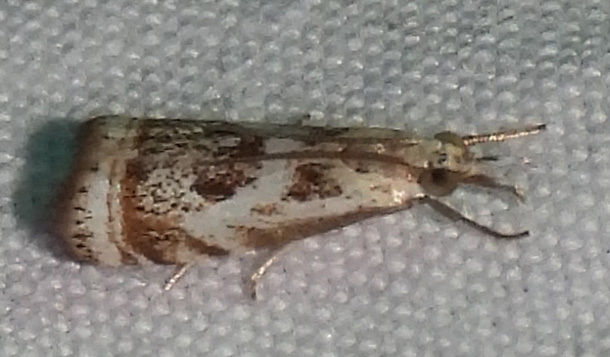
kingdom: Animalia
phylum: Arthropoda
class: Insecta
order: Lepidoptera
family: Crambidae
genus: Microcrambus
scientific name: Microcrambus elegans
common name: Elegant grass-veneer
